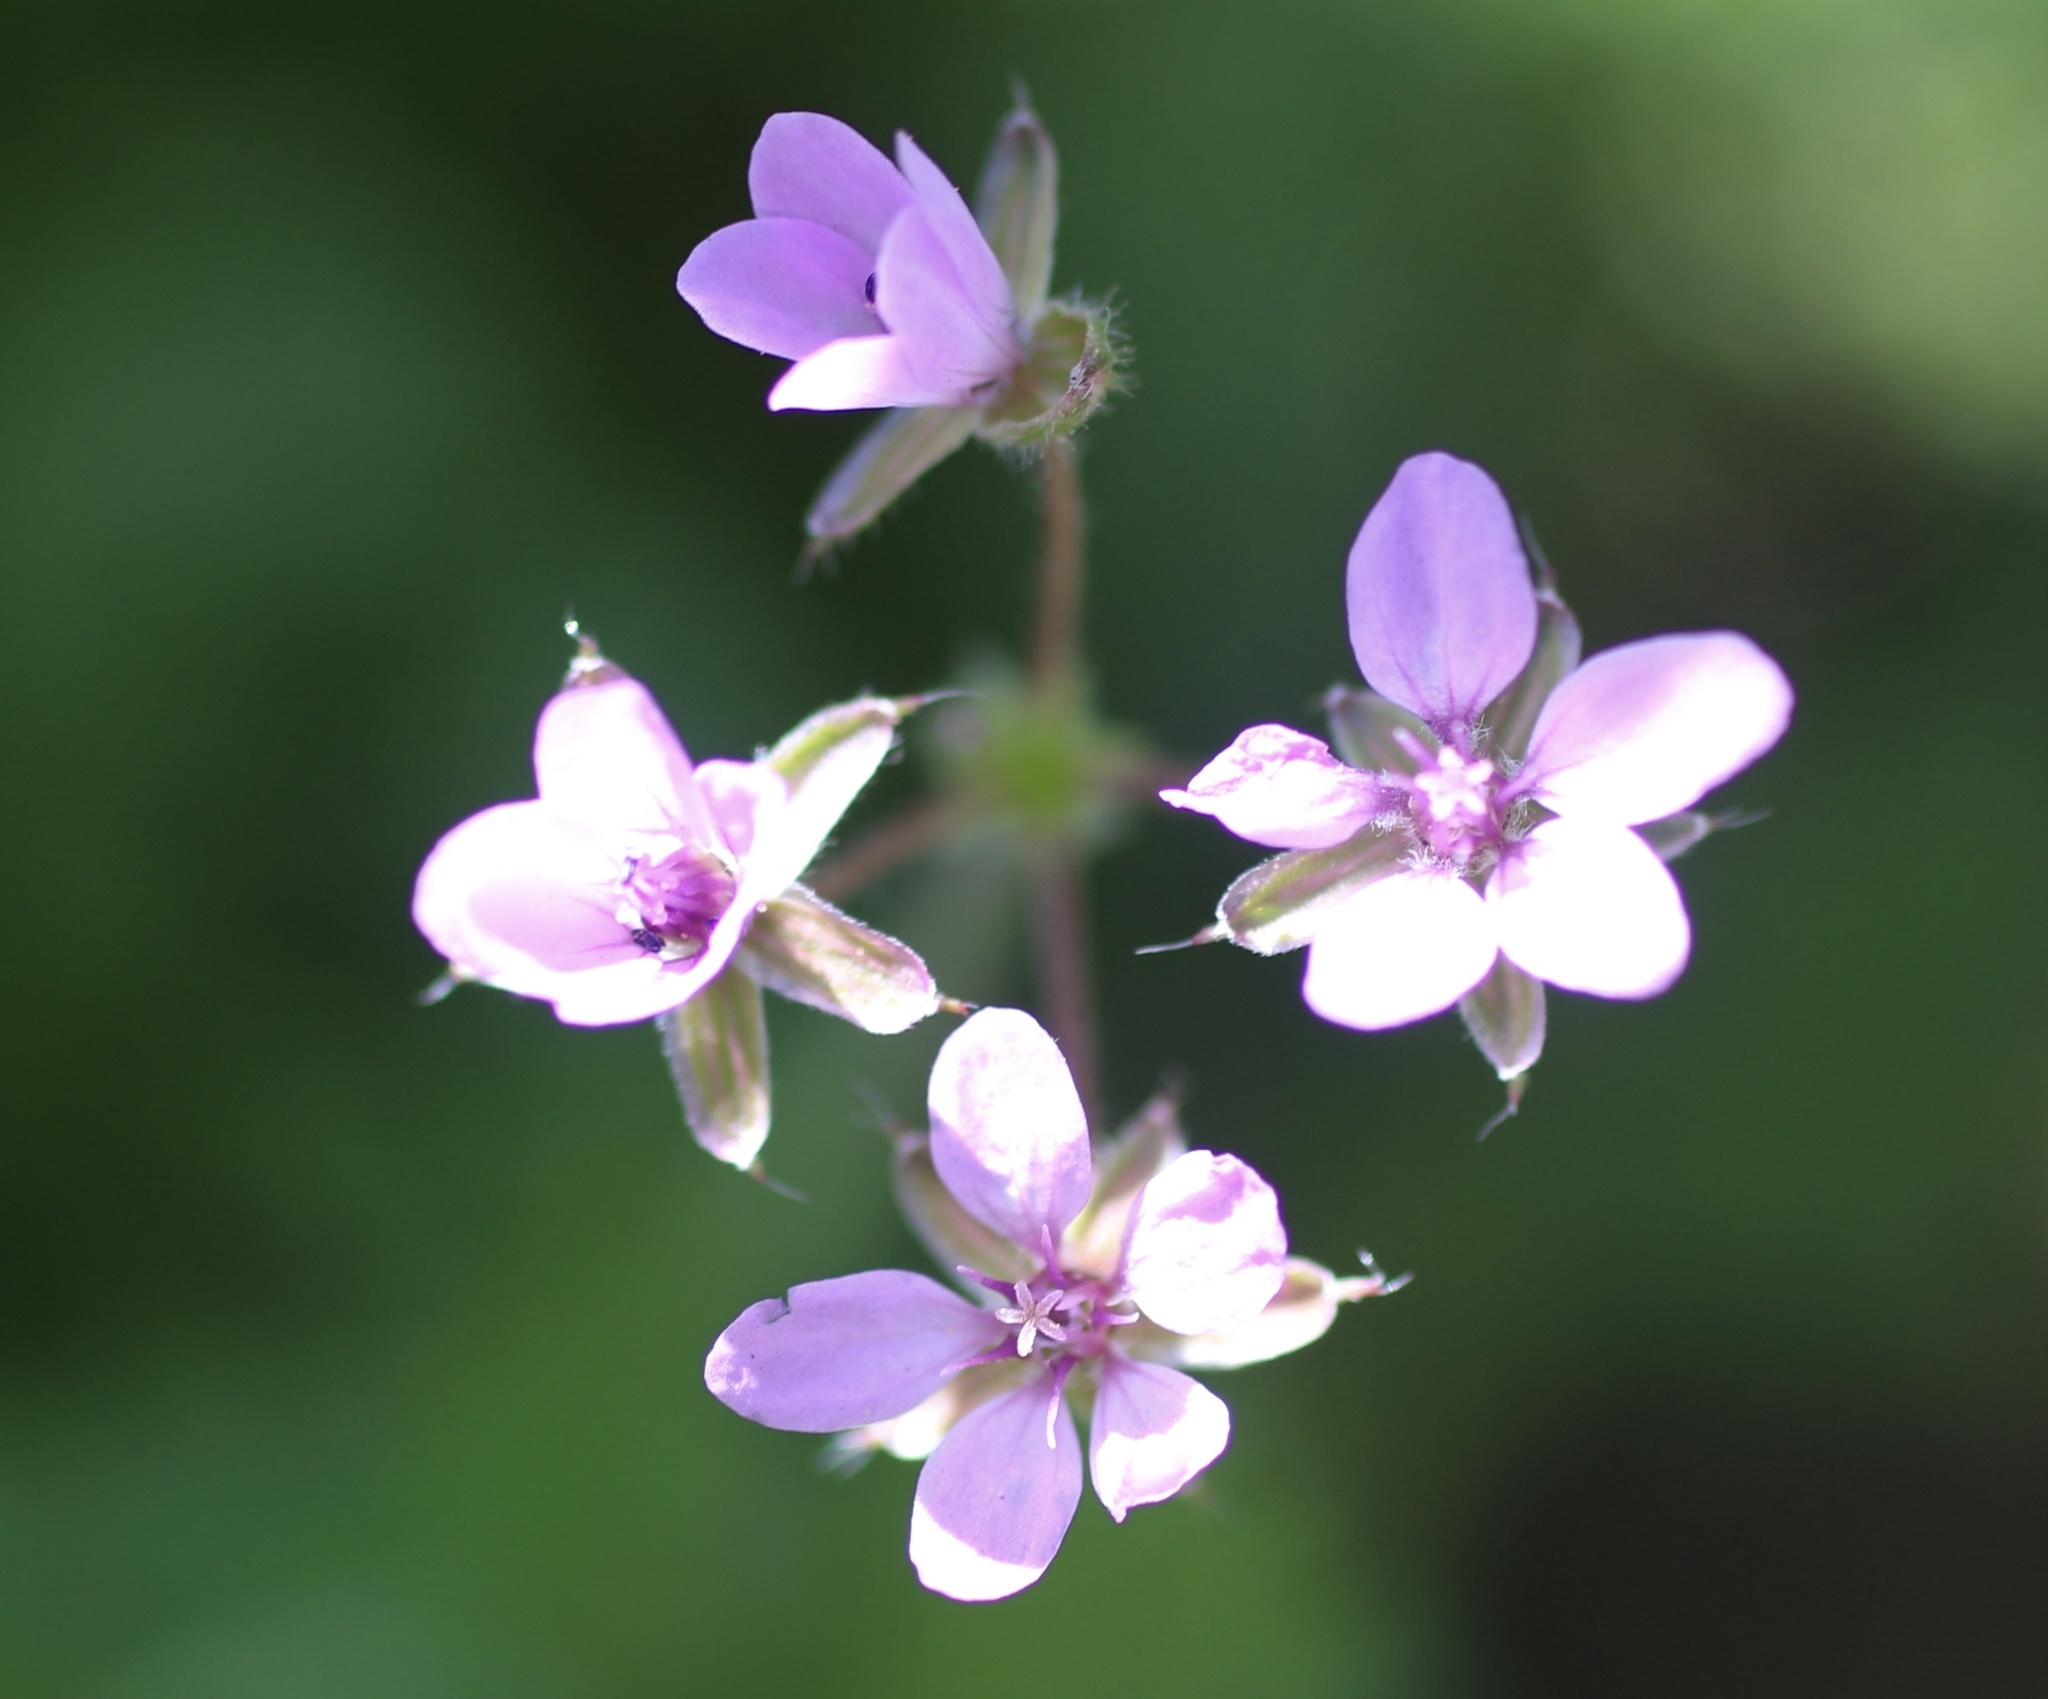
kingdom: Plantae
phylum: Tracheophyta
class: Magnoliopsida
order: Geraniales
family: Geraniaceae
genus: Erodium
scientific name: Erodium cicutarium
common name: Common stork's-bill
